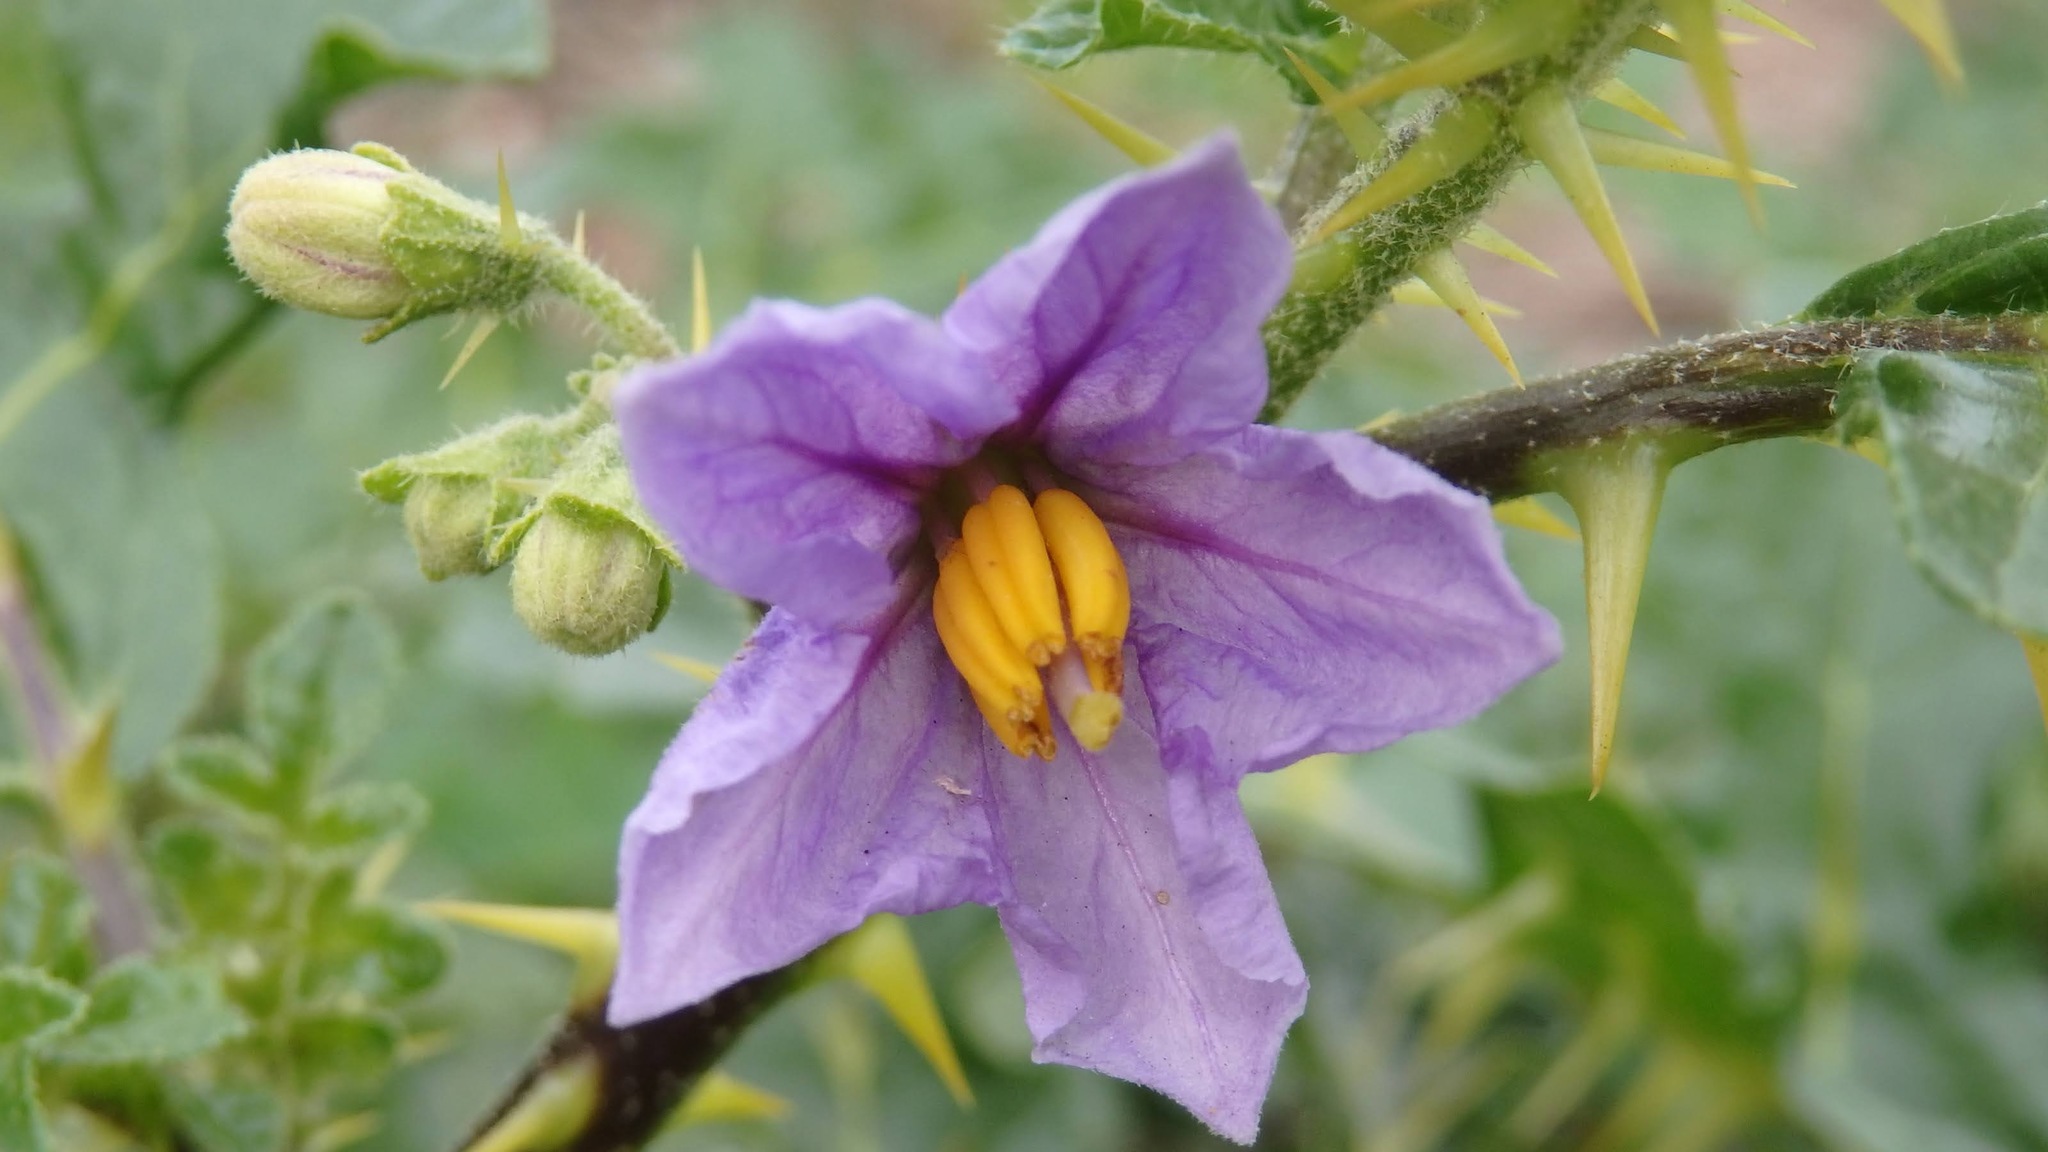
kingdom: Plantae
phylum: Tracheophyta
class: Magnoliopsida
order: Solanales
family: Solanaceae
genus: Solanum
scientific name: Solanum linnaeanum
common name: Nightshade
